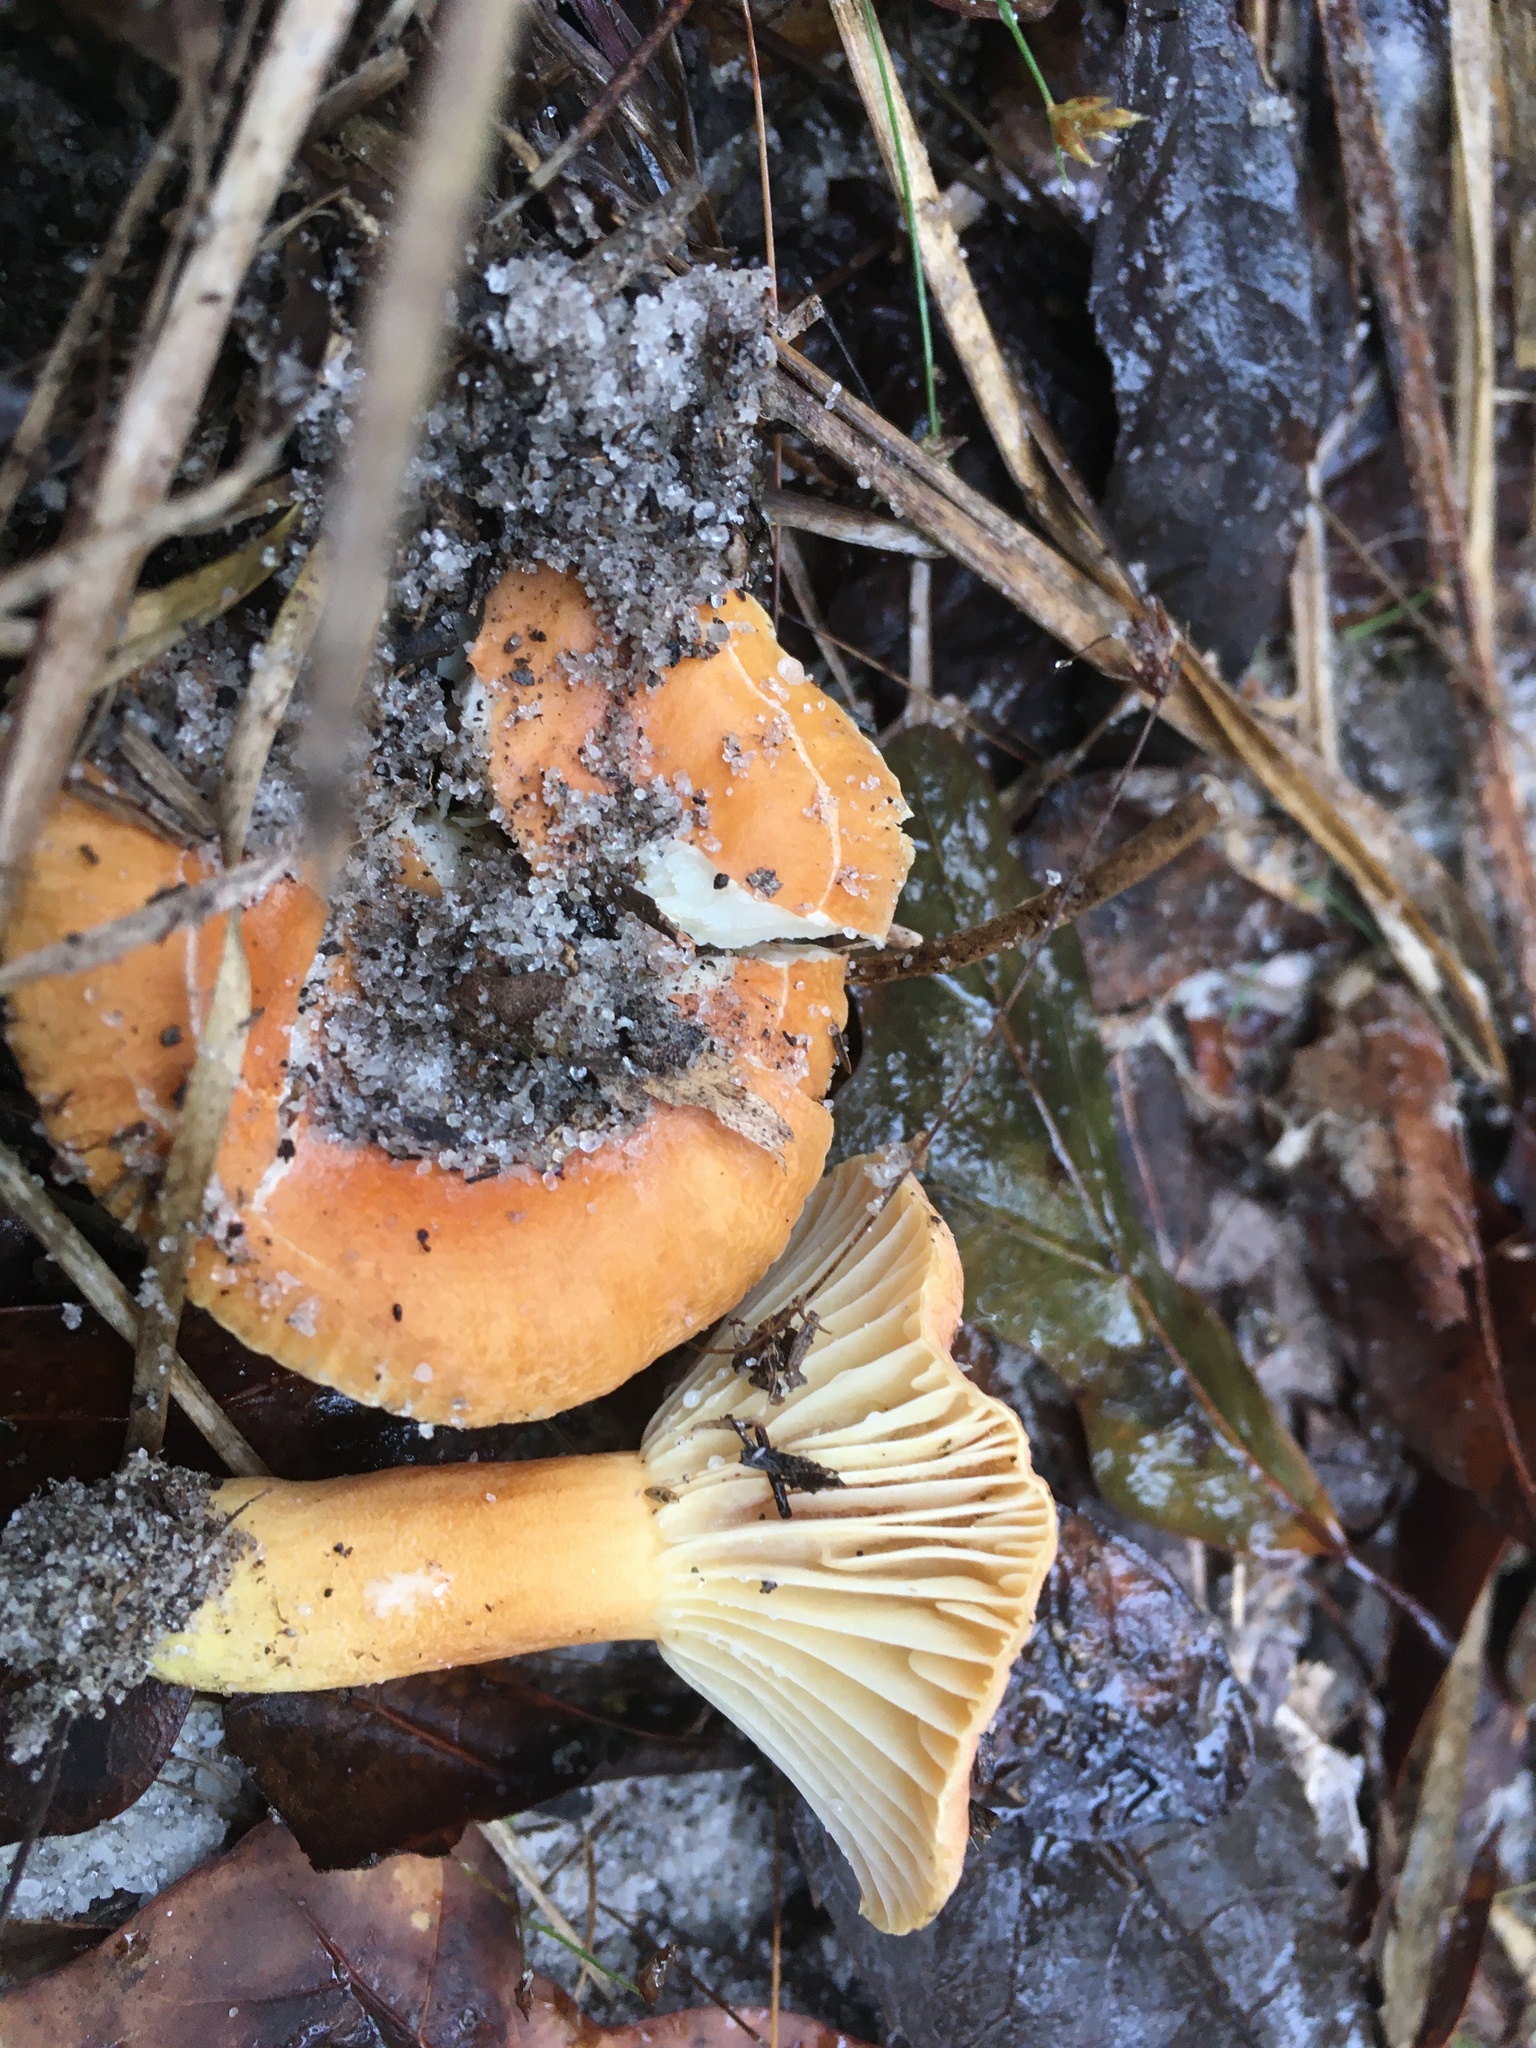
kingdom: Fungi
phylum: Basidiomycota
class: Agaricomycetes
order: Russulales
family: Russulaceae
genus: Lactarius
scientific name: Lactarius hygrophoroides
